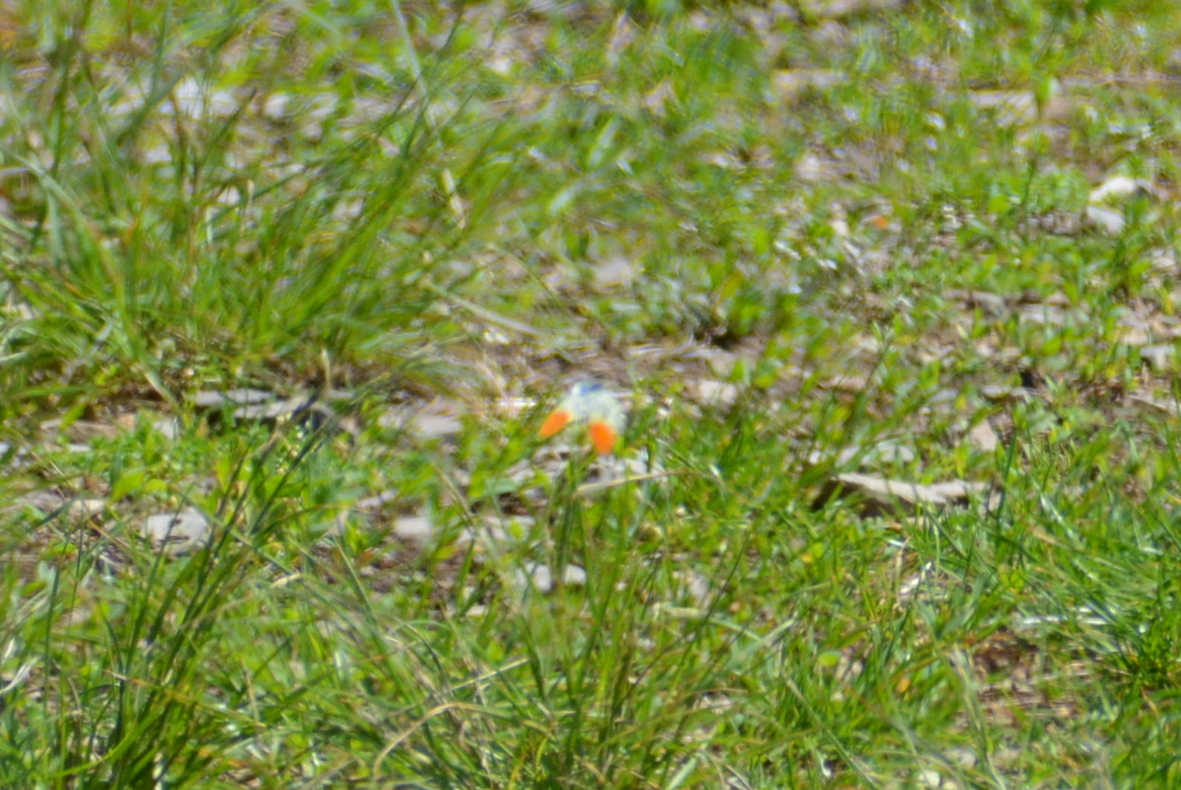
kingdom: Animalia
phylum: Arthropoda
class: Insecta
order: Lepidoptera
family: Pieridae
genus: Anthocharis
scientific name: Anthocharis cardamines
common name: Orange-tip
